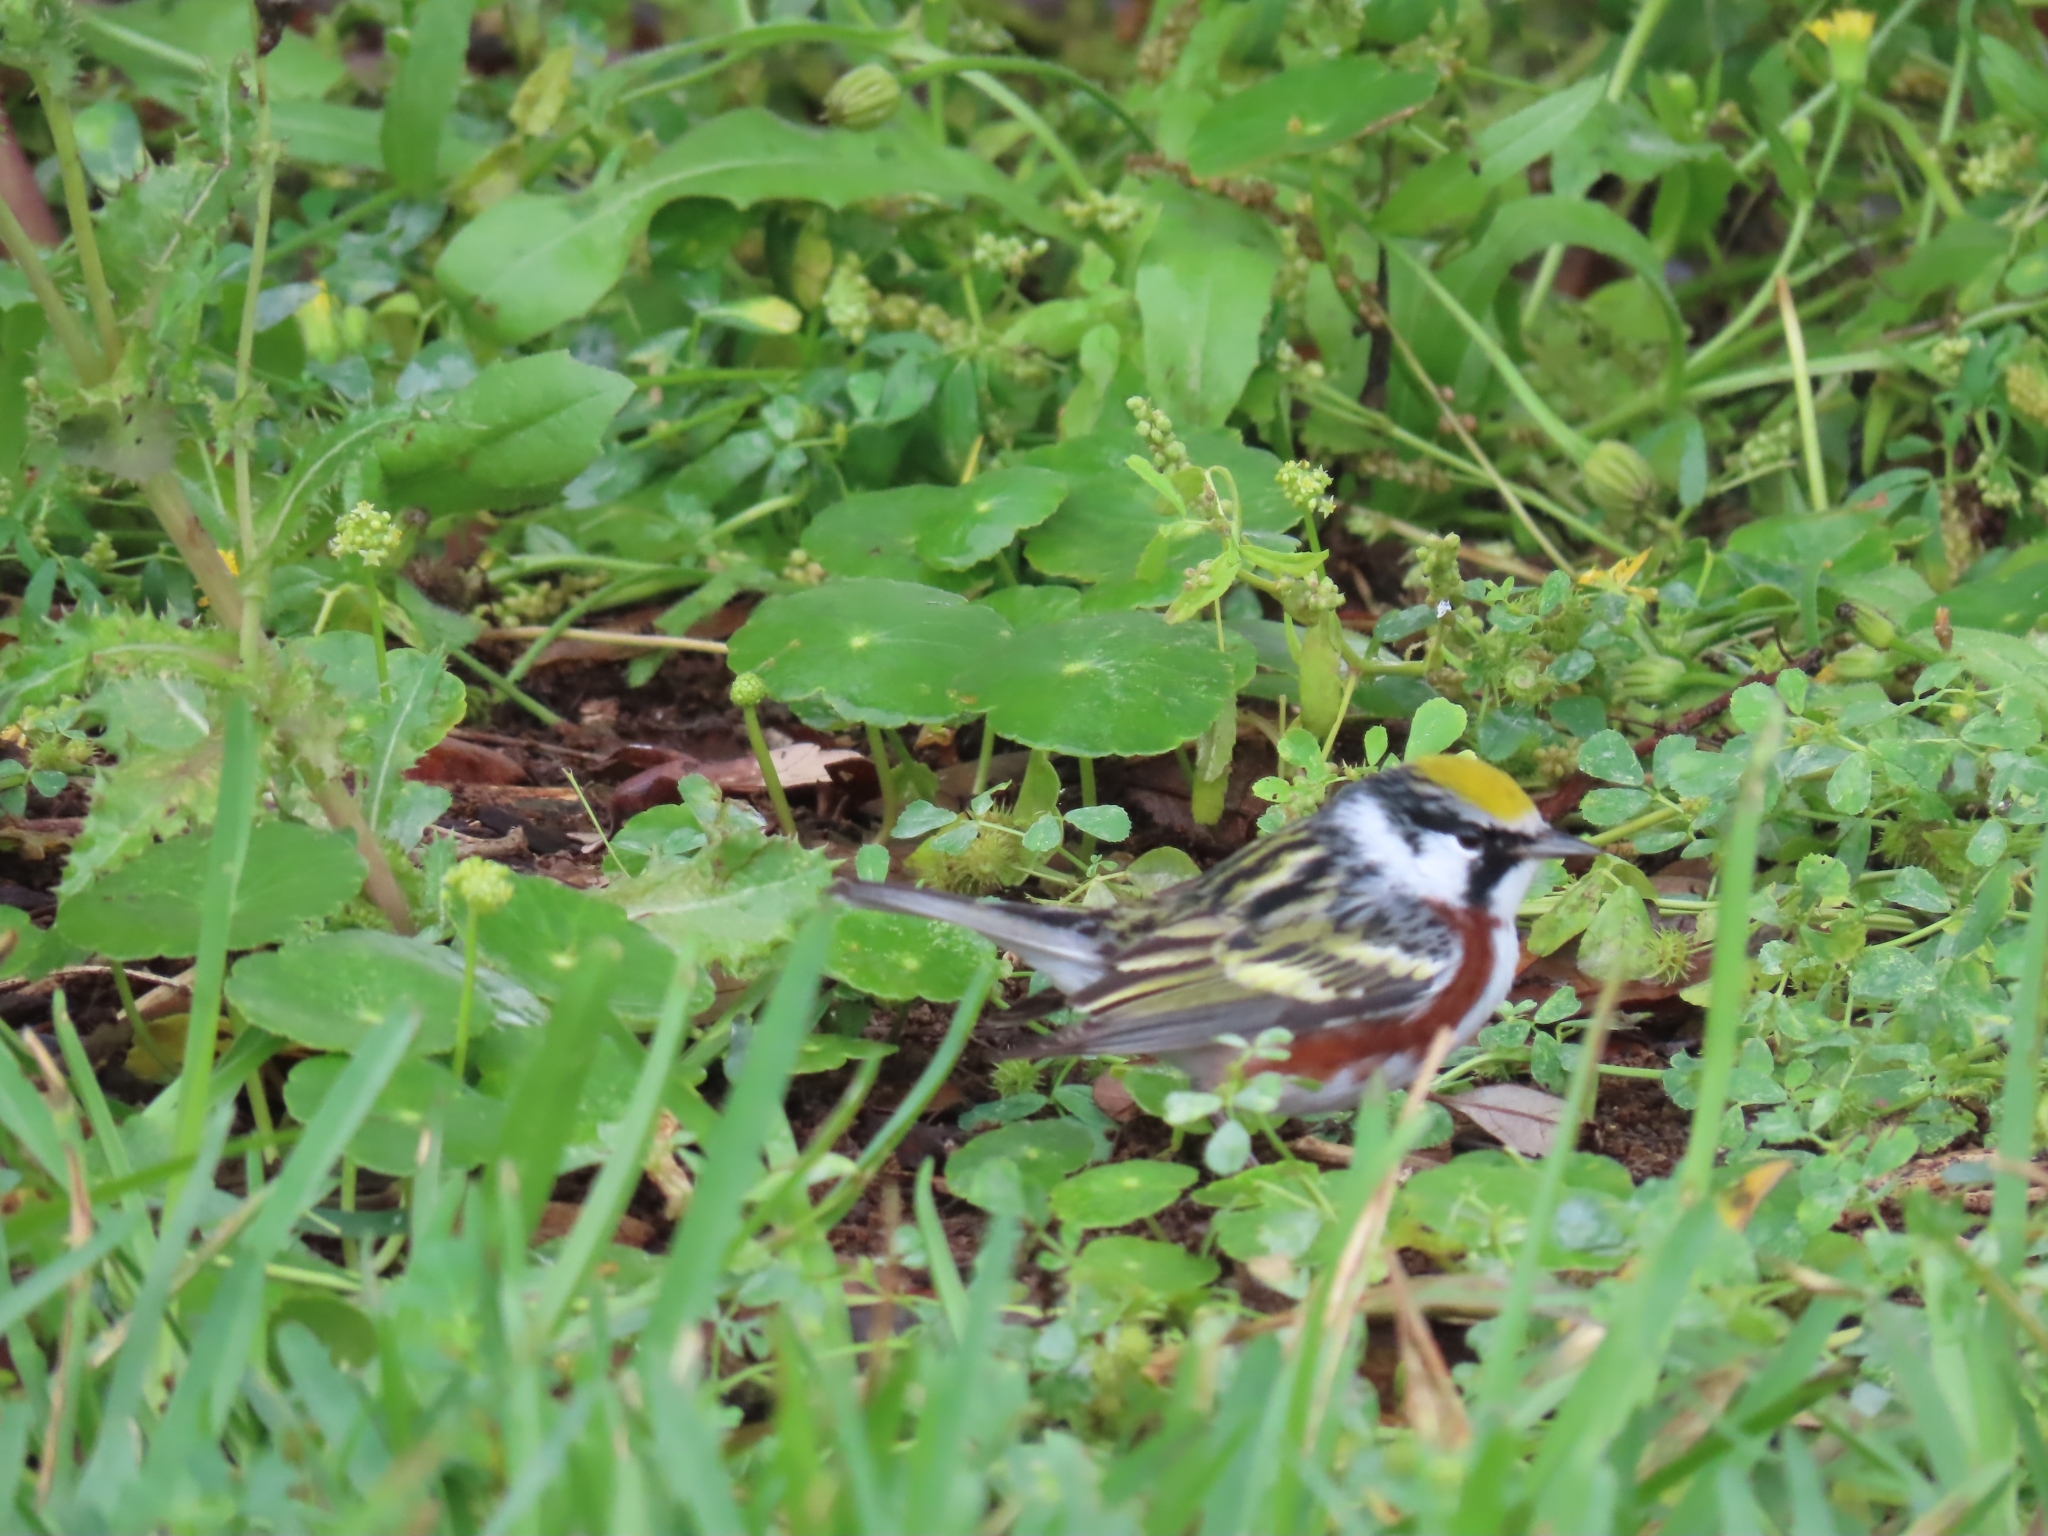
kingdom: Animalia
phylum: Chordata
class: Aves
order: Passeriformes
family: Parulidae
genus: Setophaga
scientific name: Setophaga pensylvanica
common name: Chestnut-sided warbler
